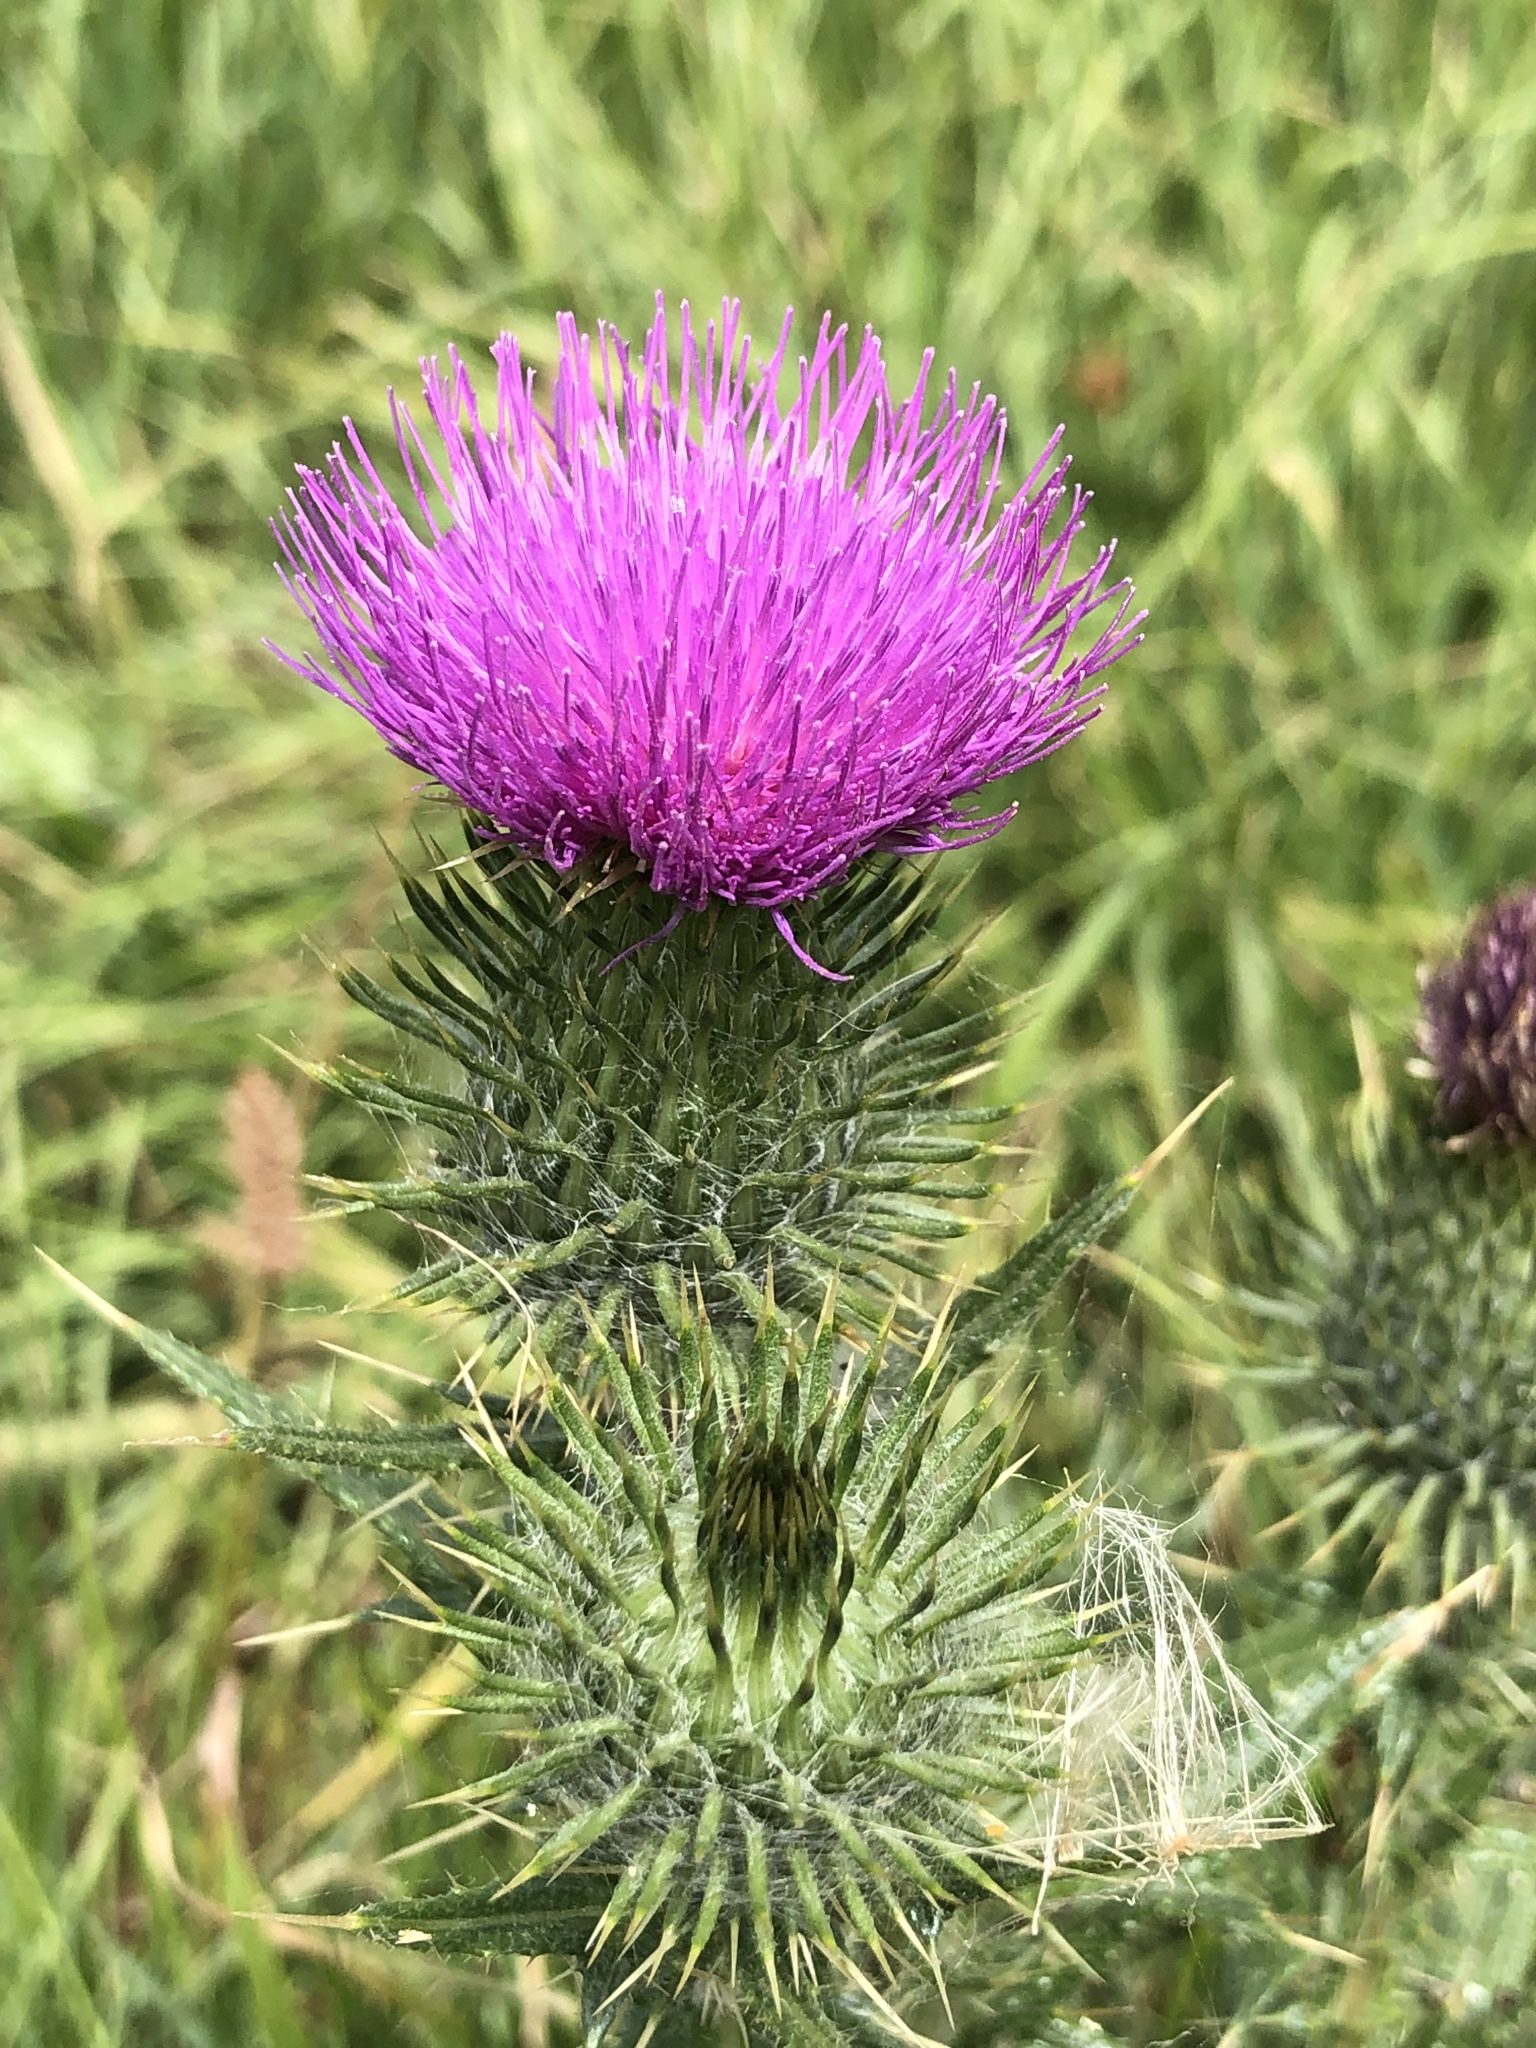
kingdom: Plantae
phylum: Tracheophyta
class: Magnoliopsida
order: Asterales
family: Asteraceae
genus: Cirsium
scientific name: Cirsium vulgare
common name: Bull thistle
